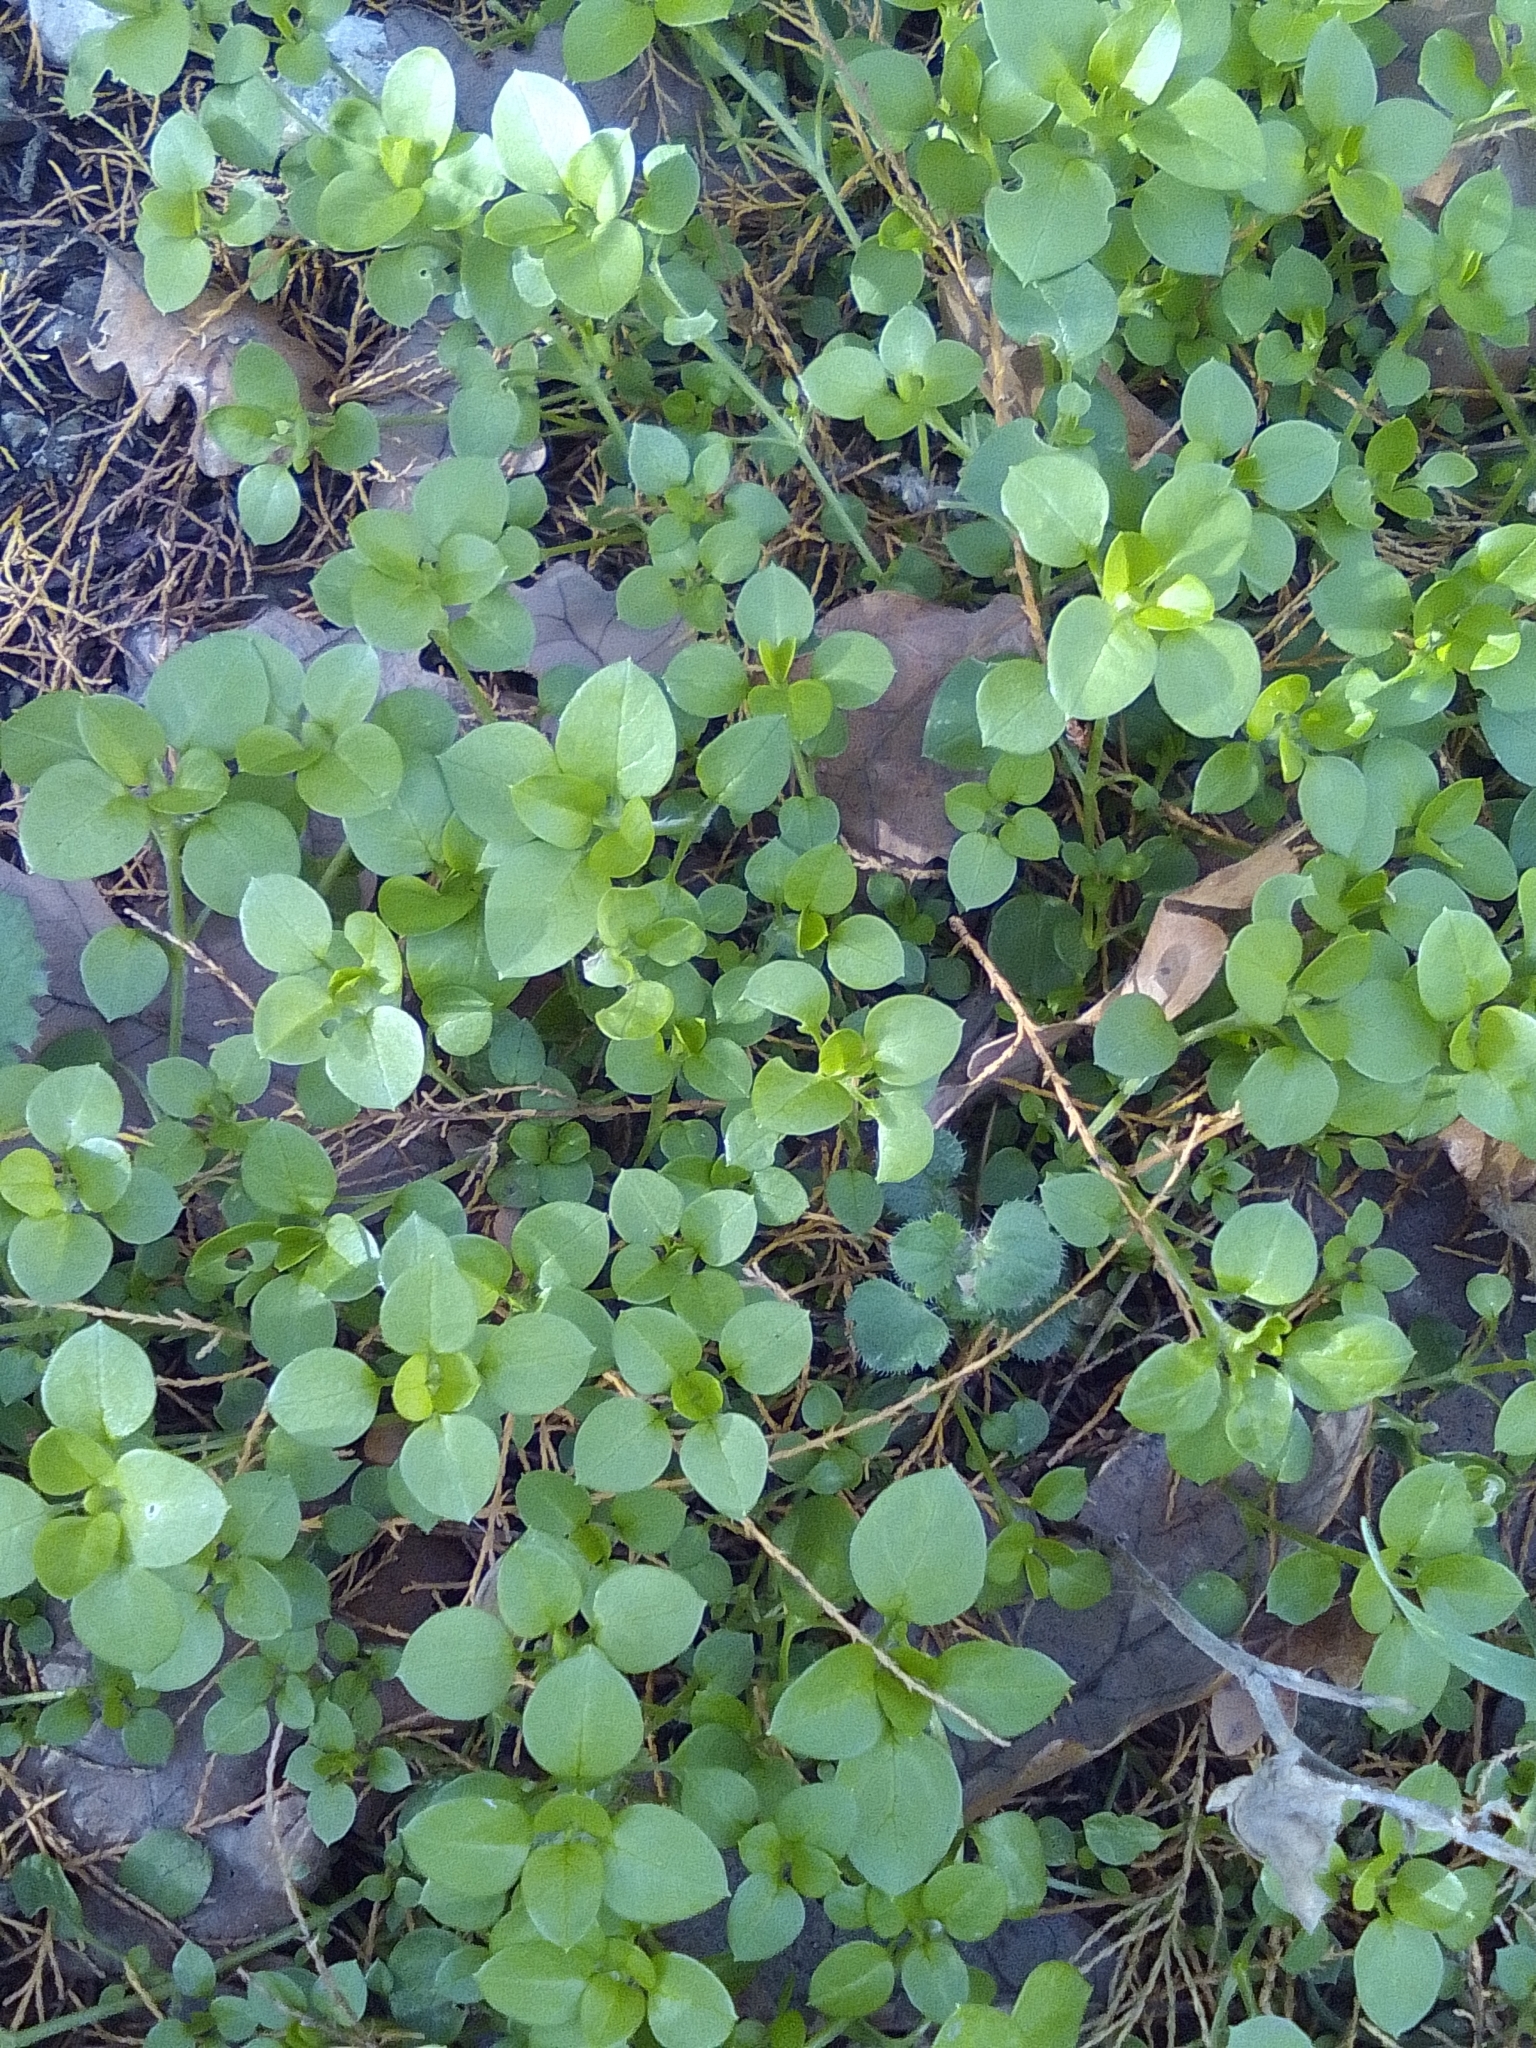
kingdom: Plantae
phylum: Tracheophyta
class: Magnoliopsida
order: Caryophyllales
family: Caryophyllaceae
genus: Stellaria
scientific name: Stellaria media
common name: Common chickweed
